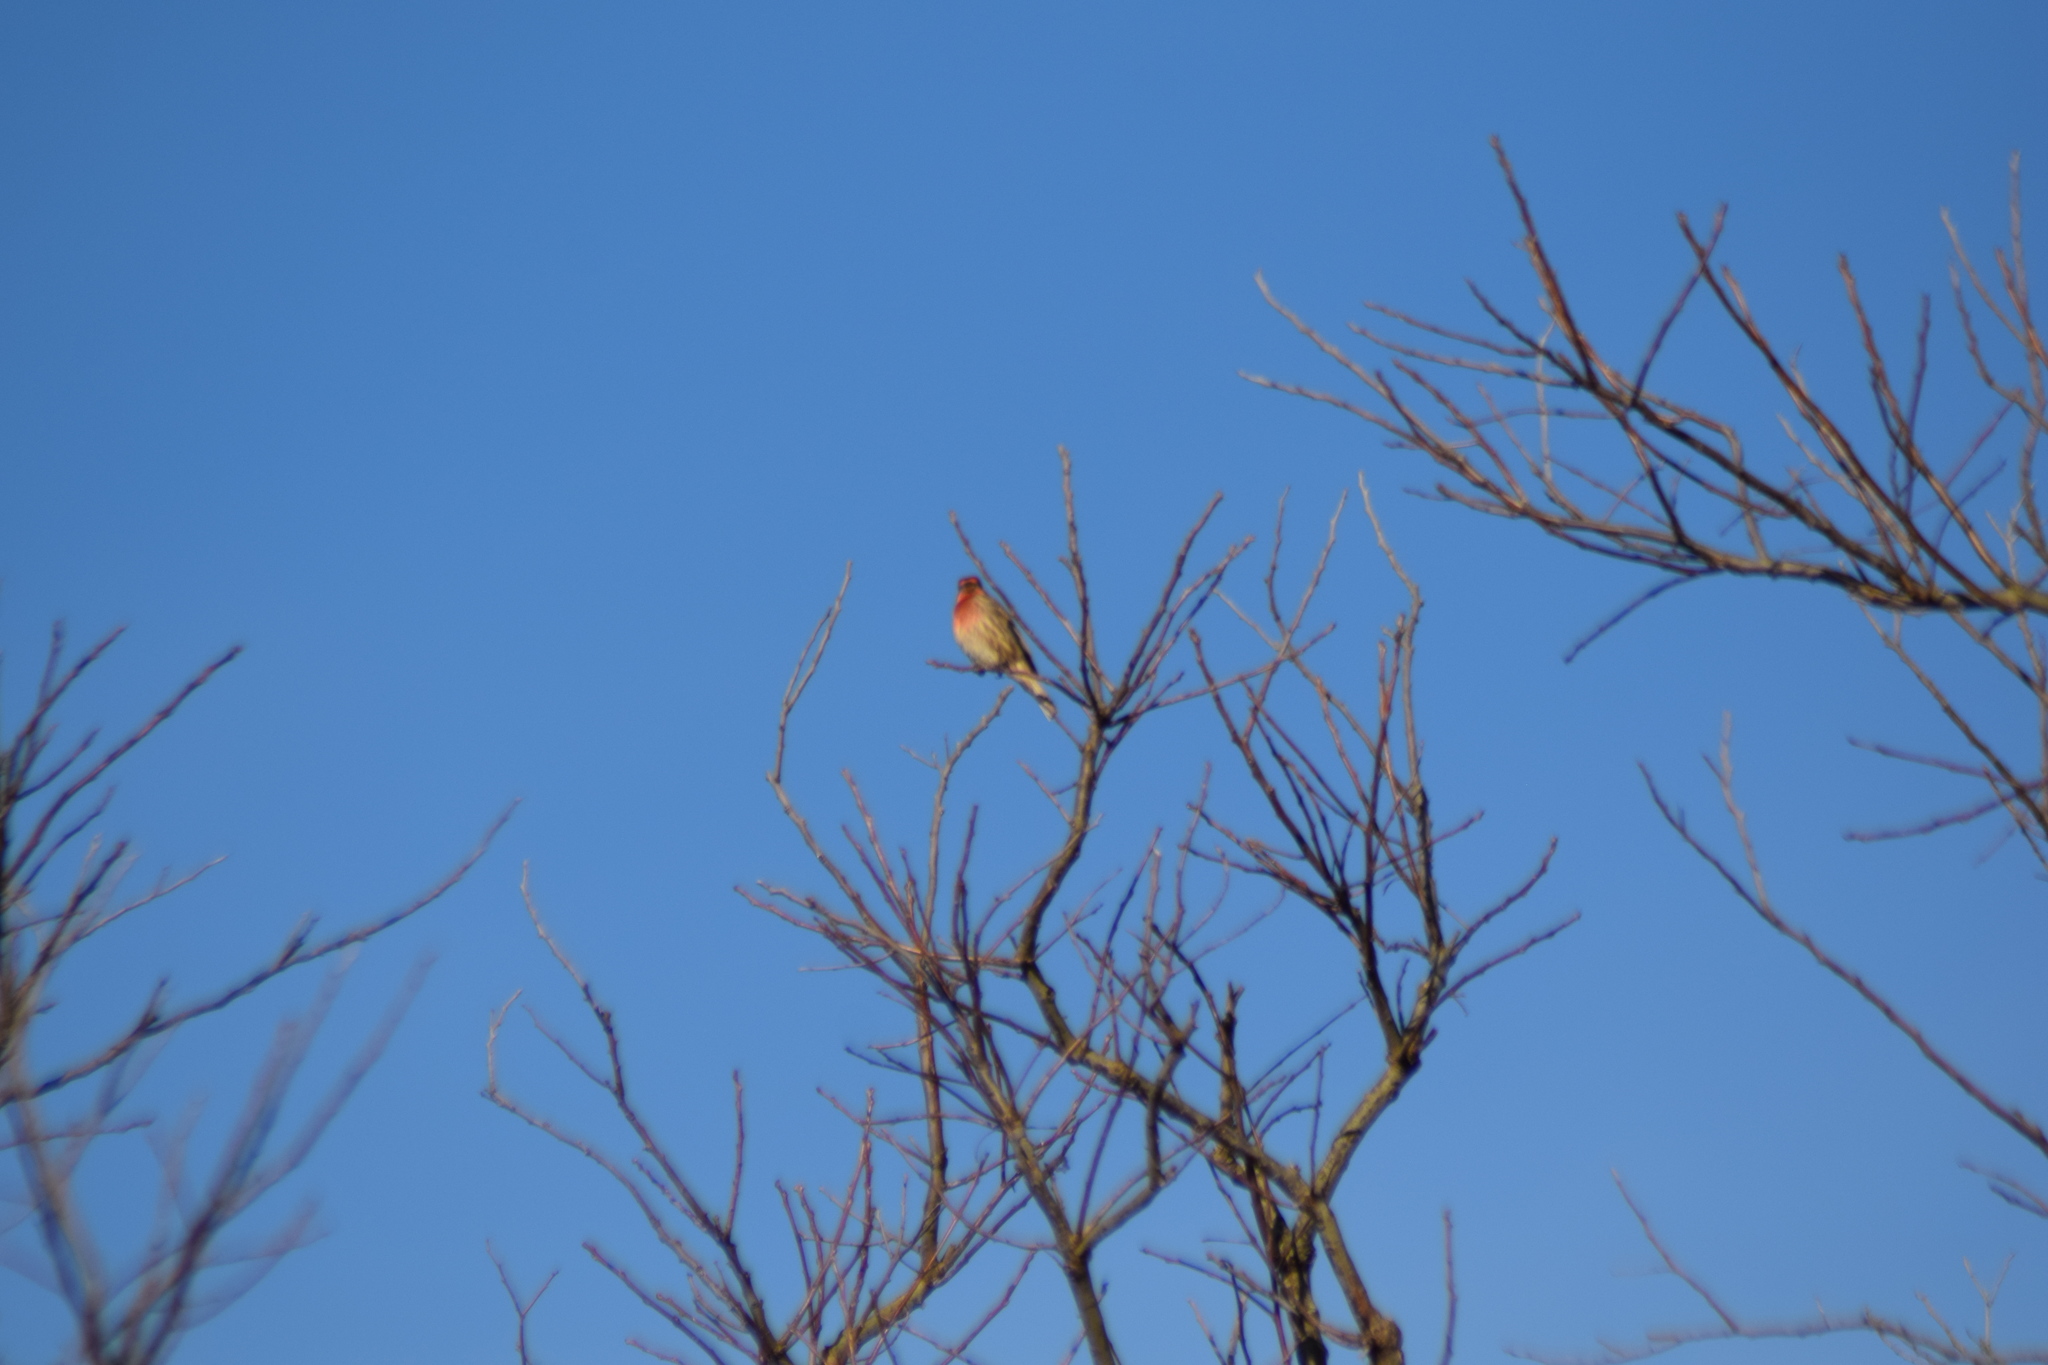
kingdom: Animalia
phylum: Chordata
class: Aves
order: Passeriformes
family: Fringillidae
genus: Haemorhous
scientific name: Haemorhous mexicanus
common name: House finch
